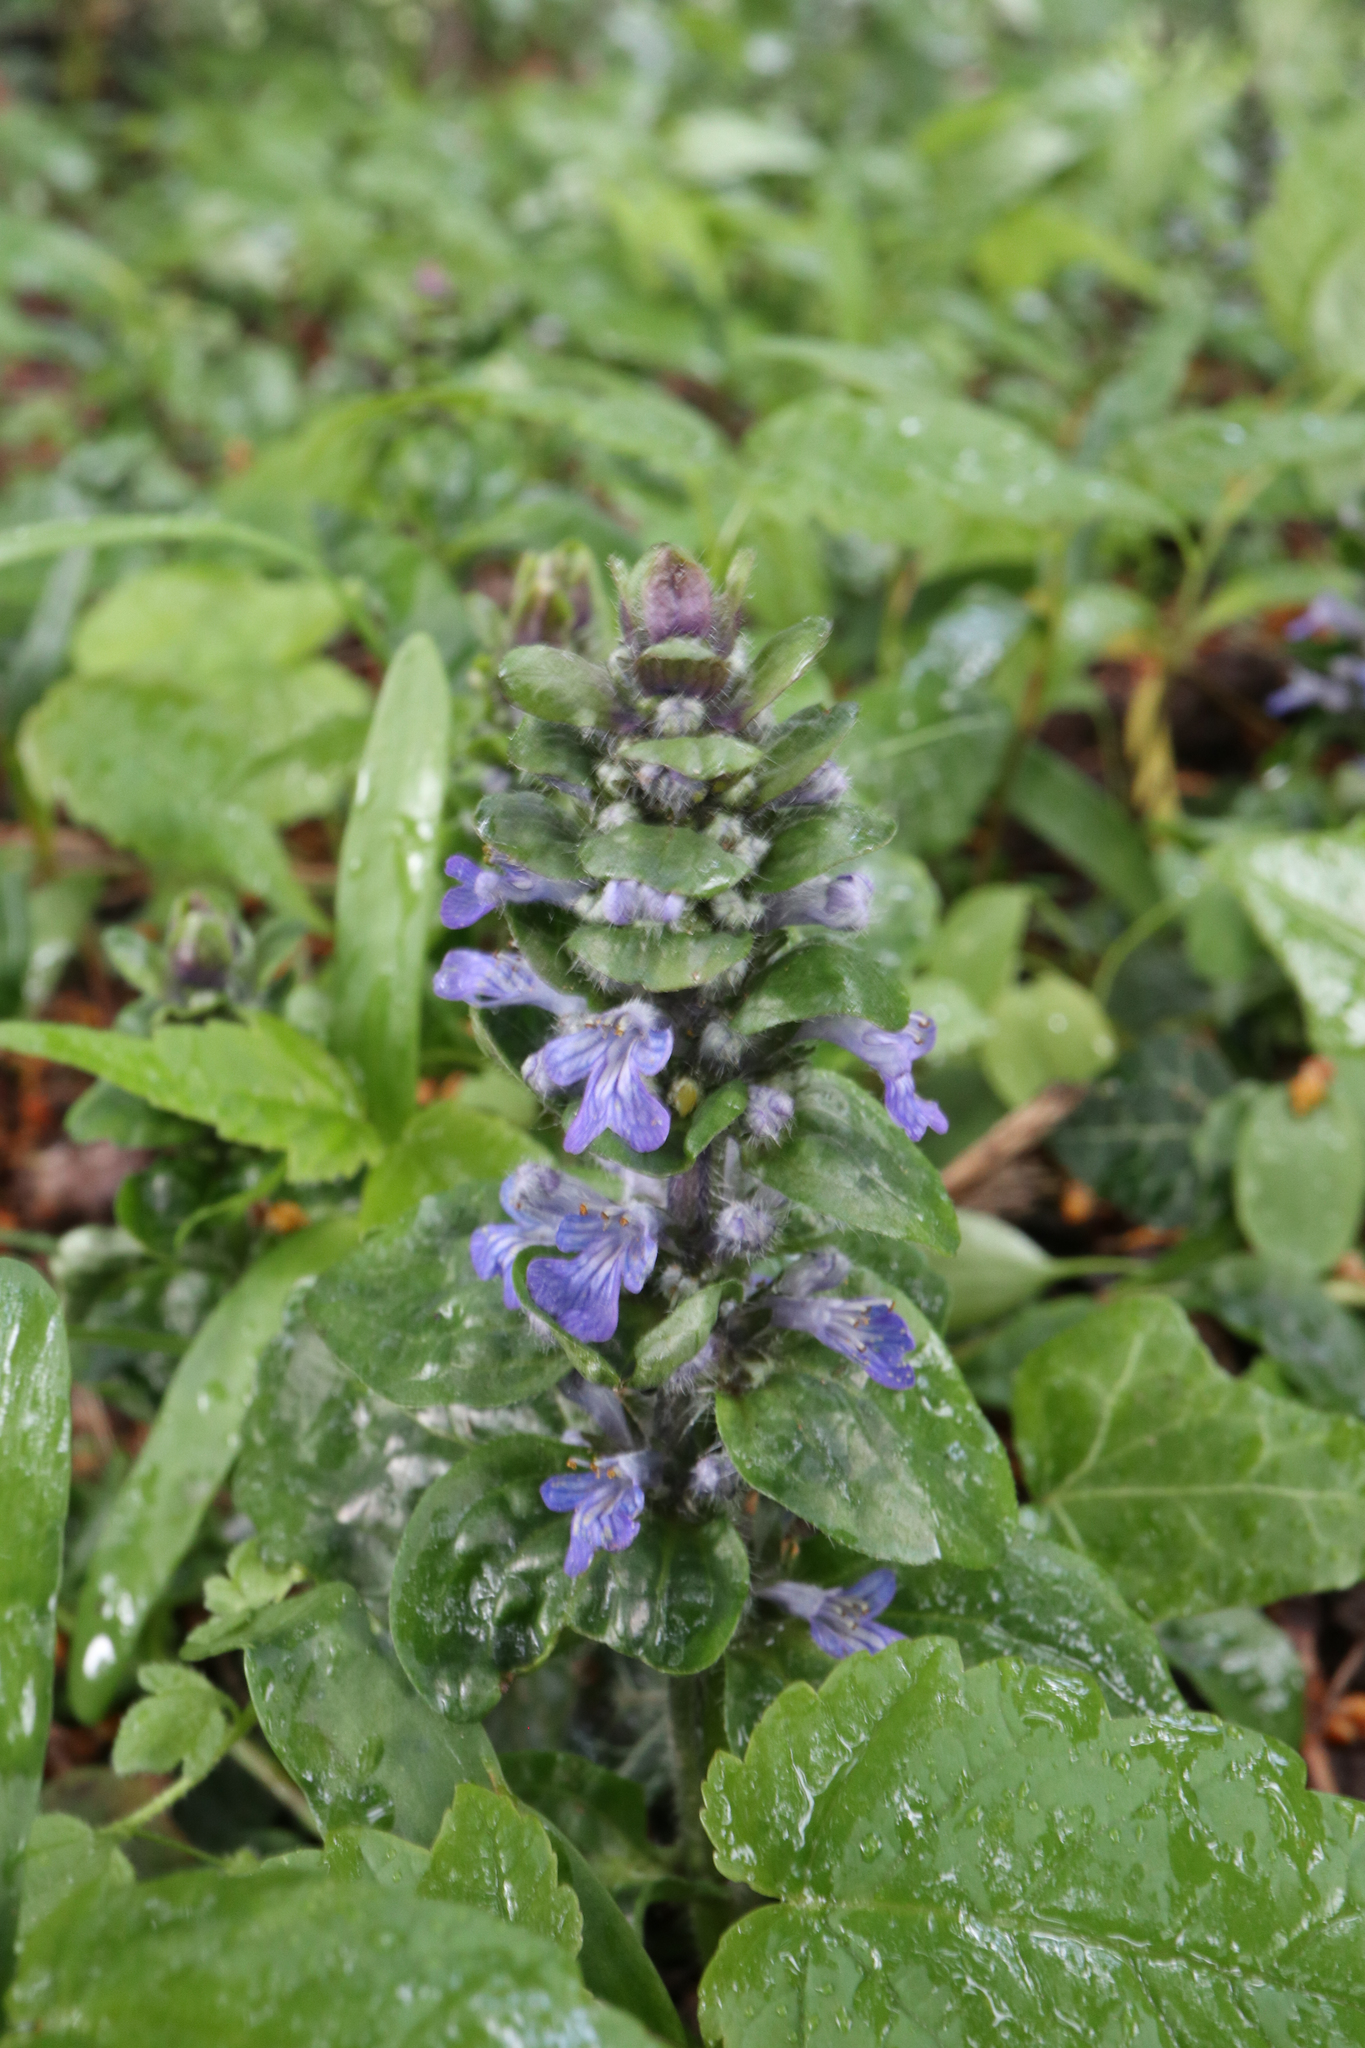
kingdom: Plantae
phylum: Tracheophyta
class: Magnoliopsida
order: Lamiales
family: Lamiaceae
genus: Ajuga
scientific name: Ajuga reptans
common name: Bugle
